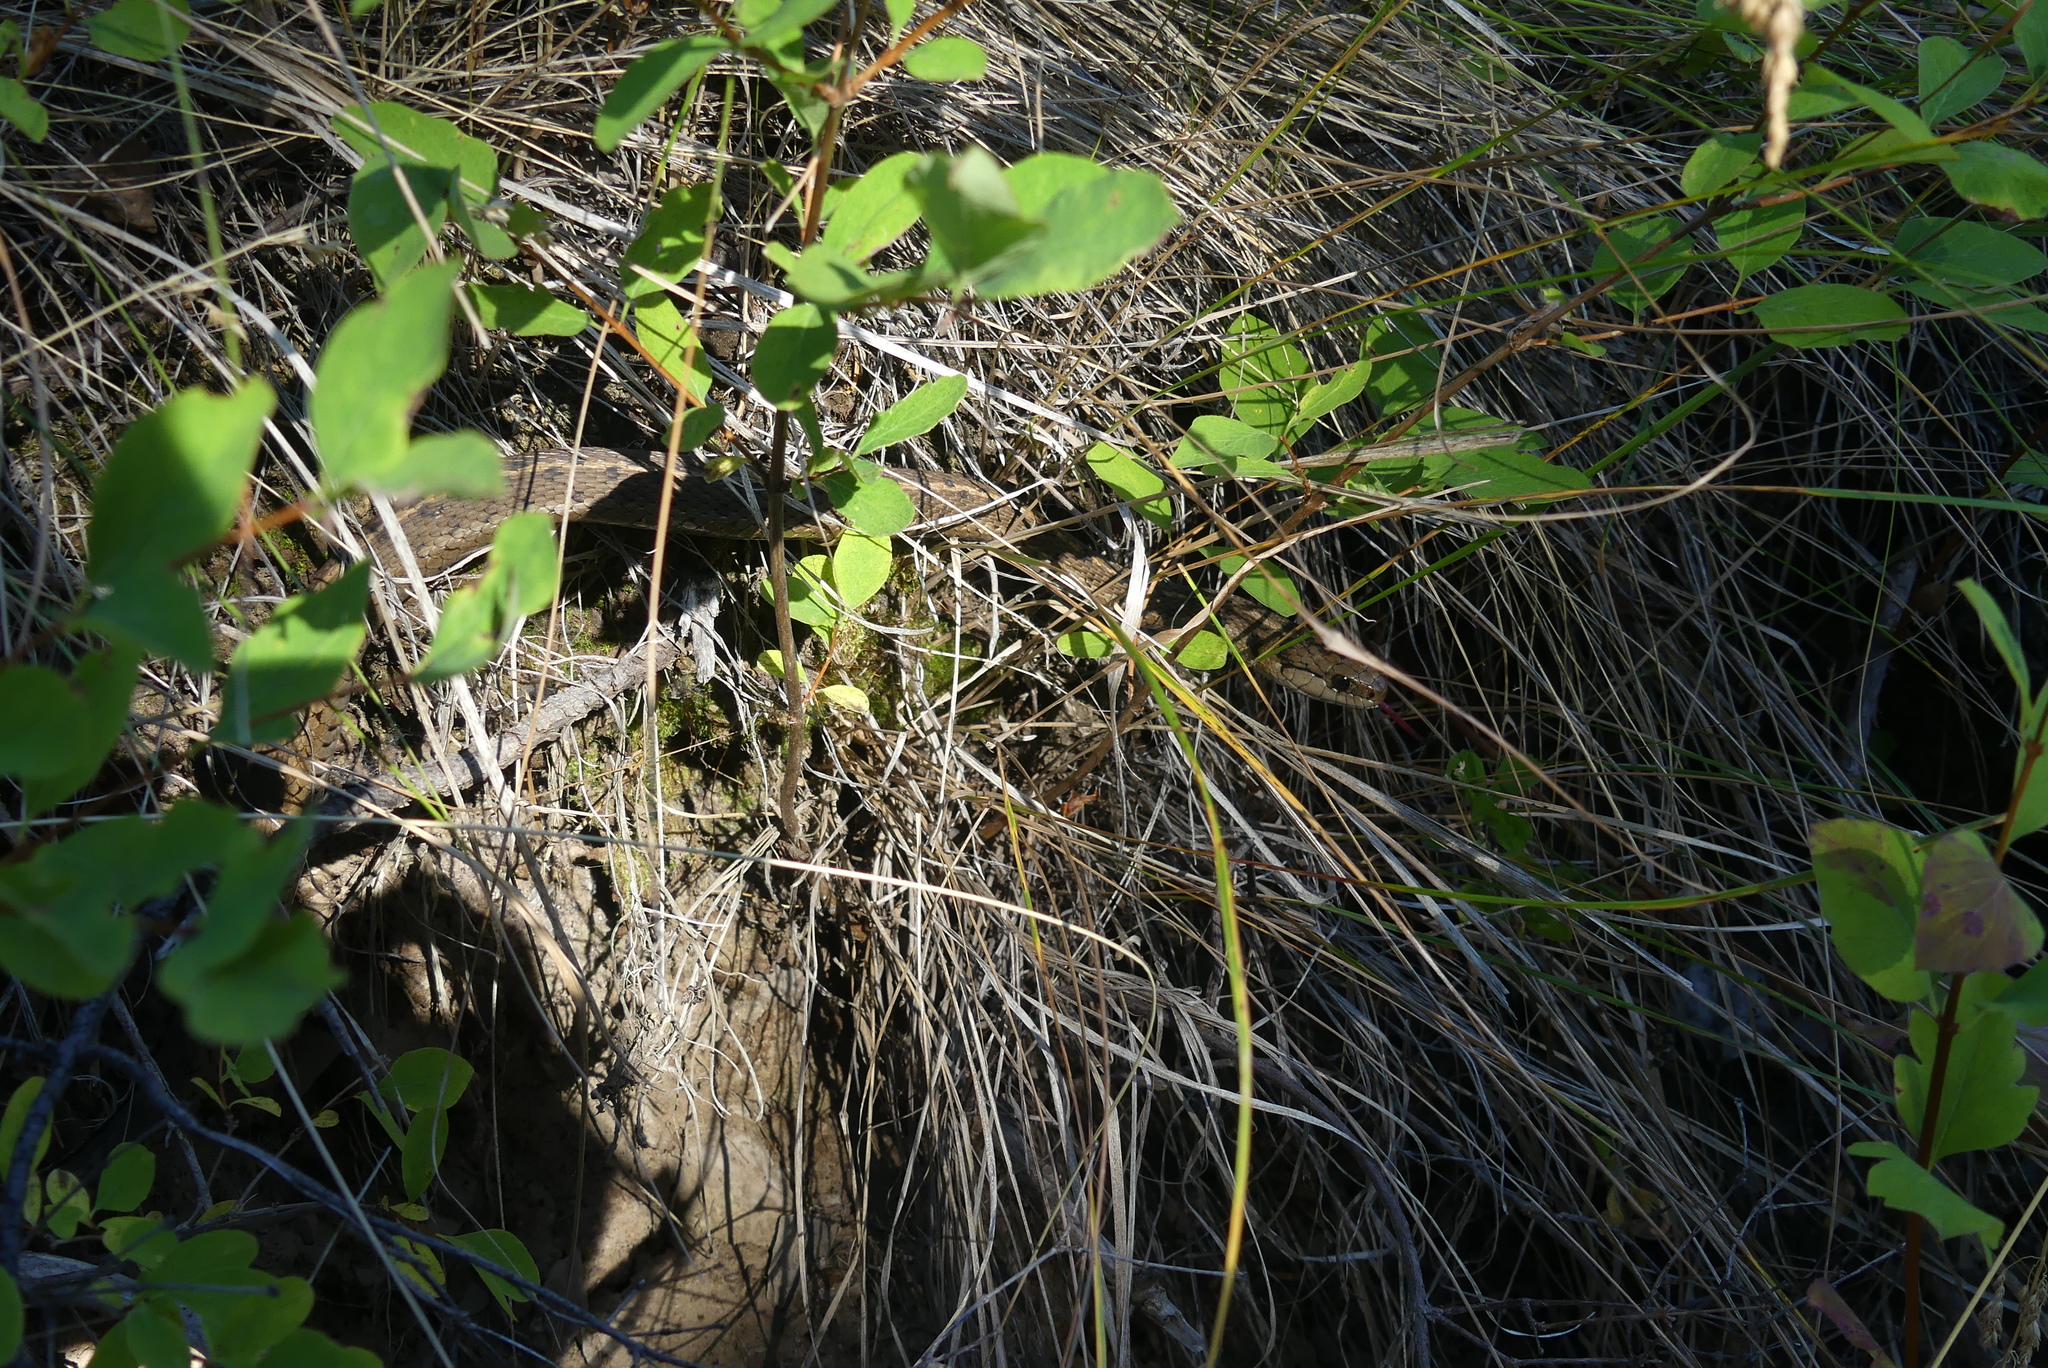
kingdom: Animalia
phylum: Chordata
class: Squamata
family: Colubridae
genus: Thamnophis
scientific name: Thamnophis elegans
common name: Western terrestrial garter snake
